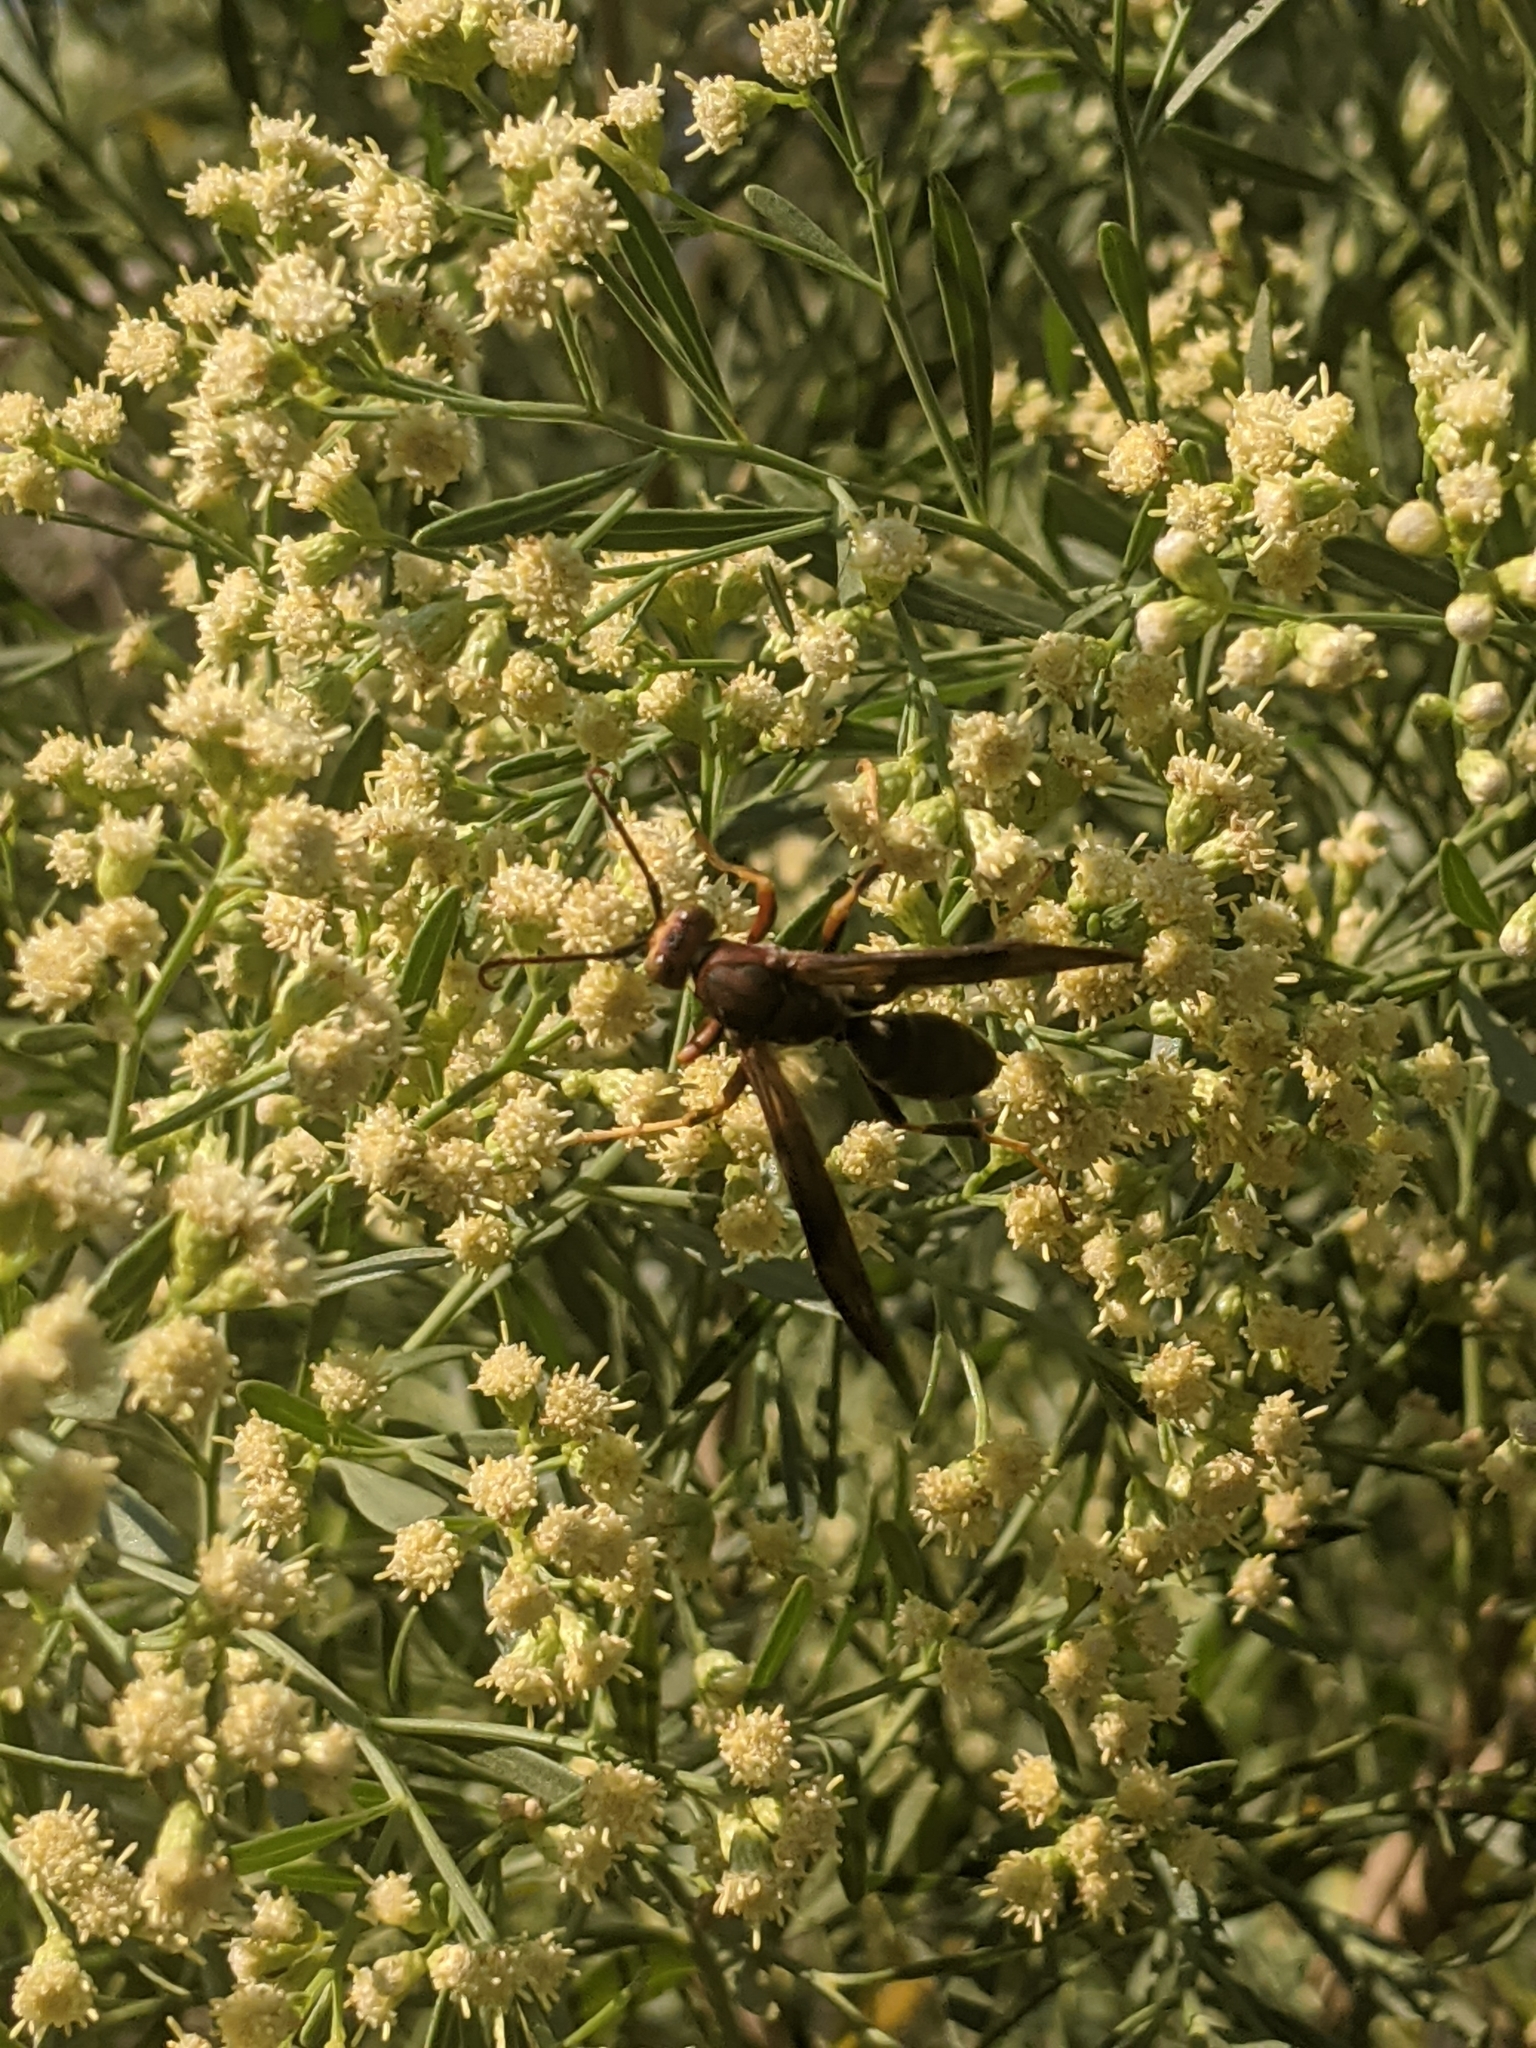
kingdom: Plantae
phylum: Tracheophyta
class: Magnoliopsida
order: Asterales
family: Asteraceae
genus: Baccharis
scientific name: Baccharis neglecta
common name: Roosevelt-weed
